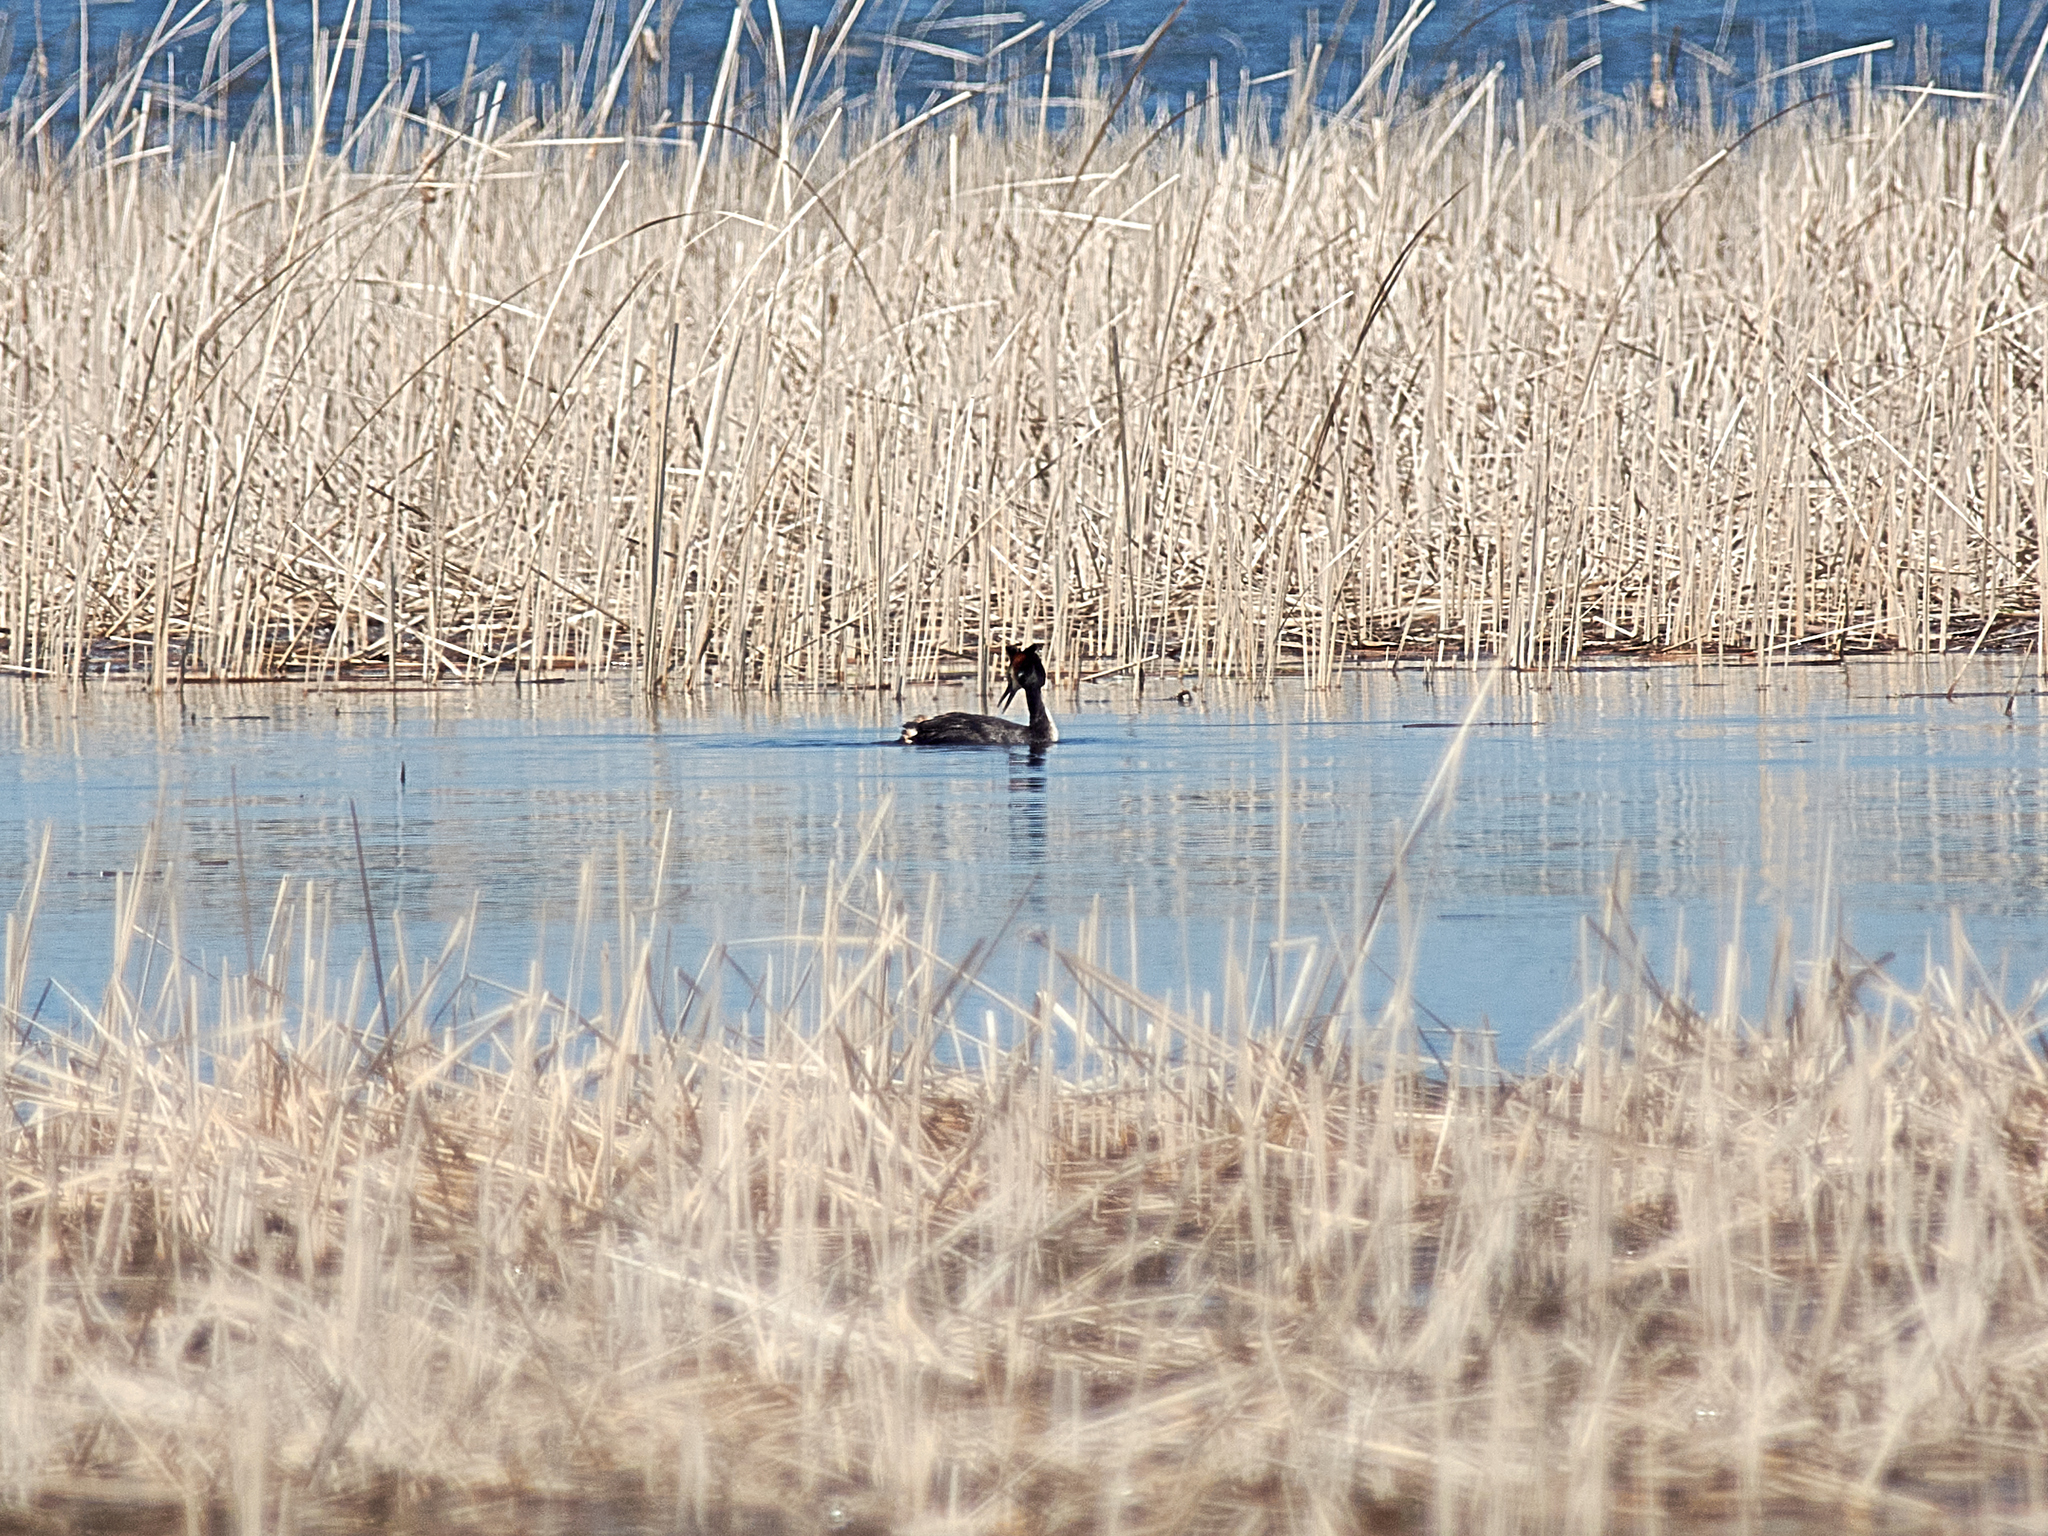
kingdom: Animalia
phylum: Chordata
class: Aves
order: Podicipediformes
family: Podicipedidae
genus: Podiceps
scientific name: Podiceps cristatus
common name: Great crested grebe
